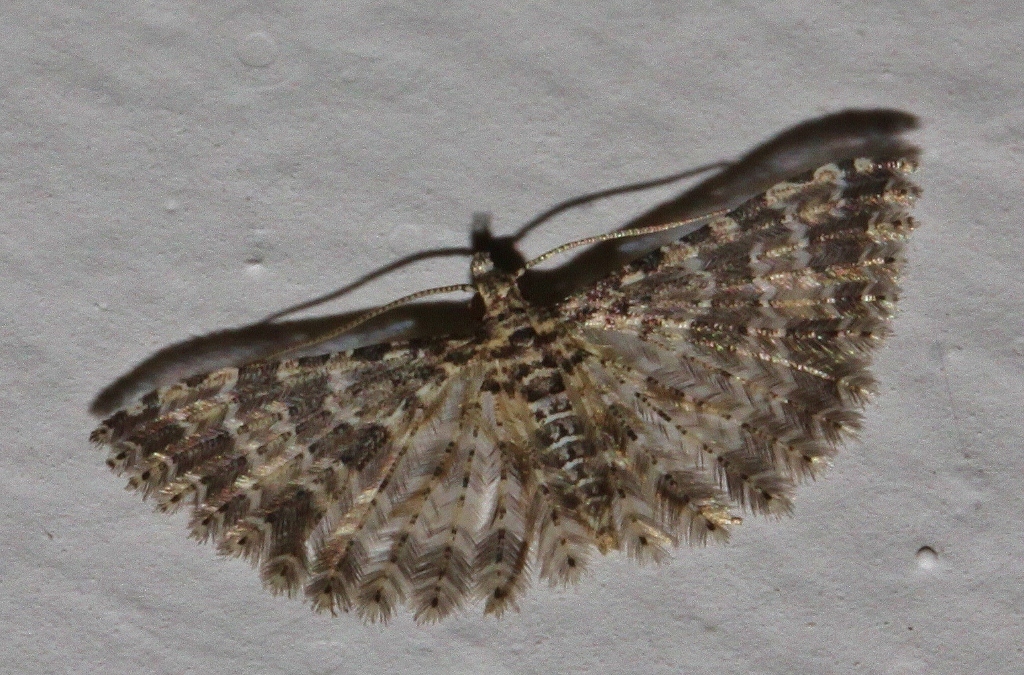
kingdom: Animalia
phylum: Arthropoda
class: Insecta
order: Lepidoptera
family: Alucitidae
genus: Alucita
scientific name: Alucita spicifera
